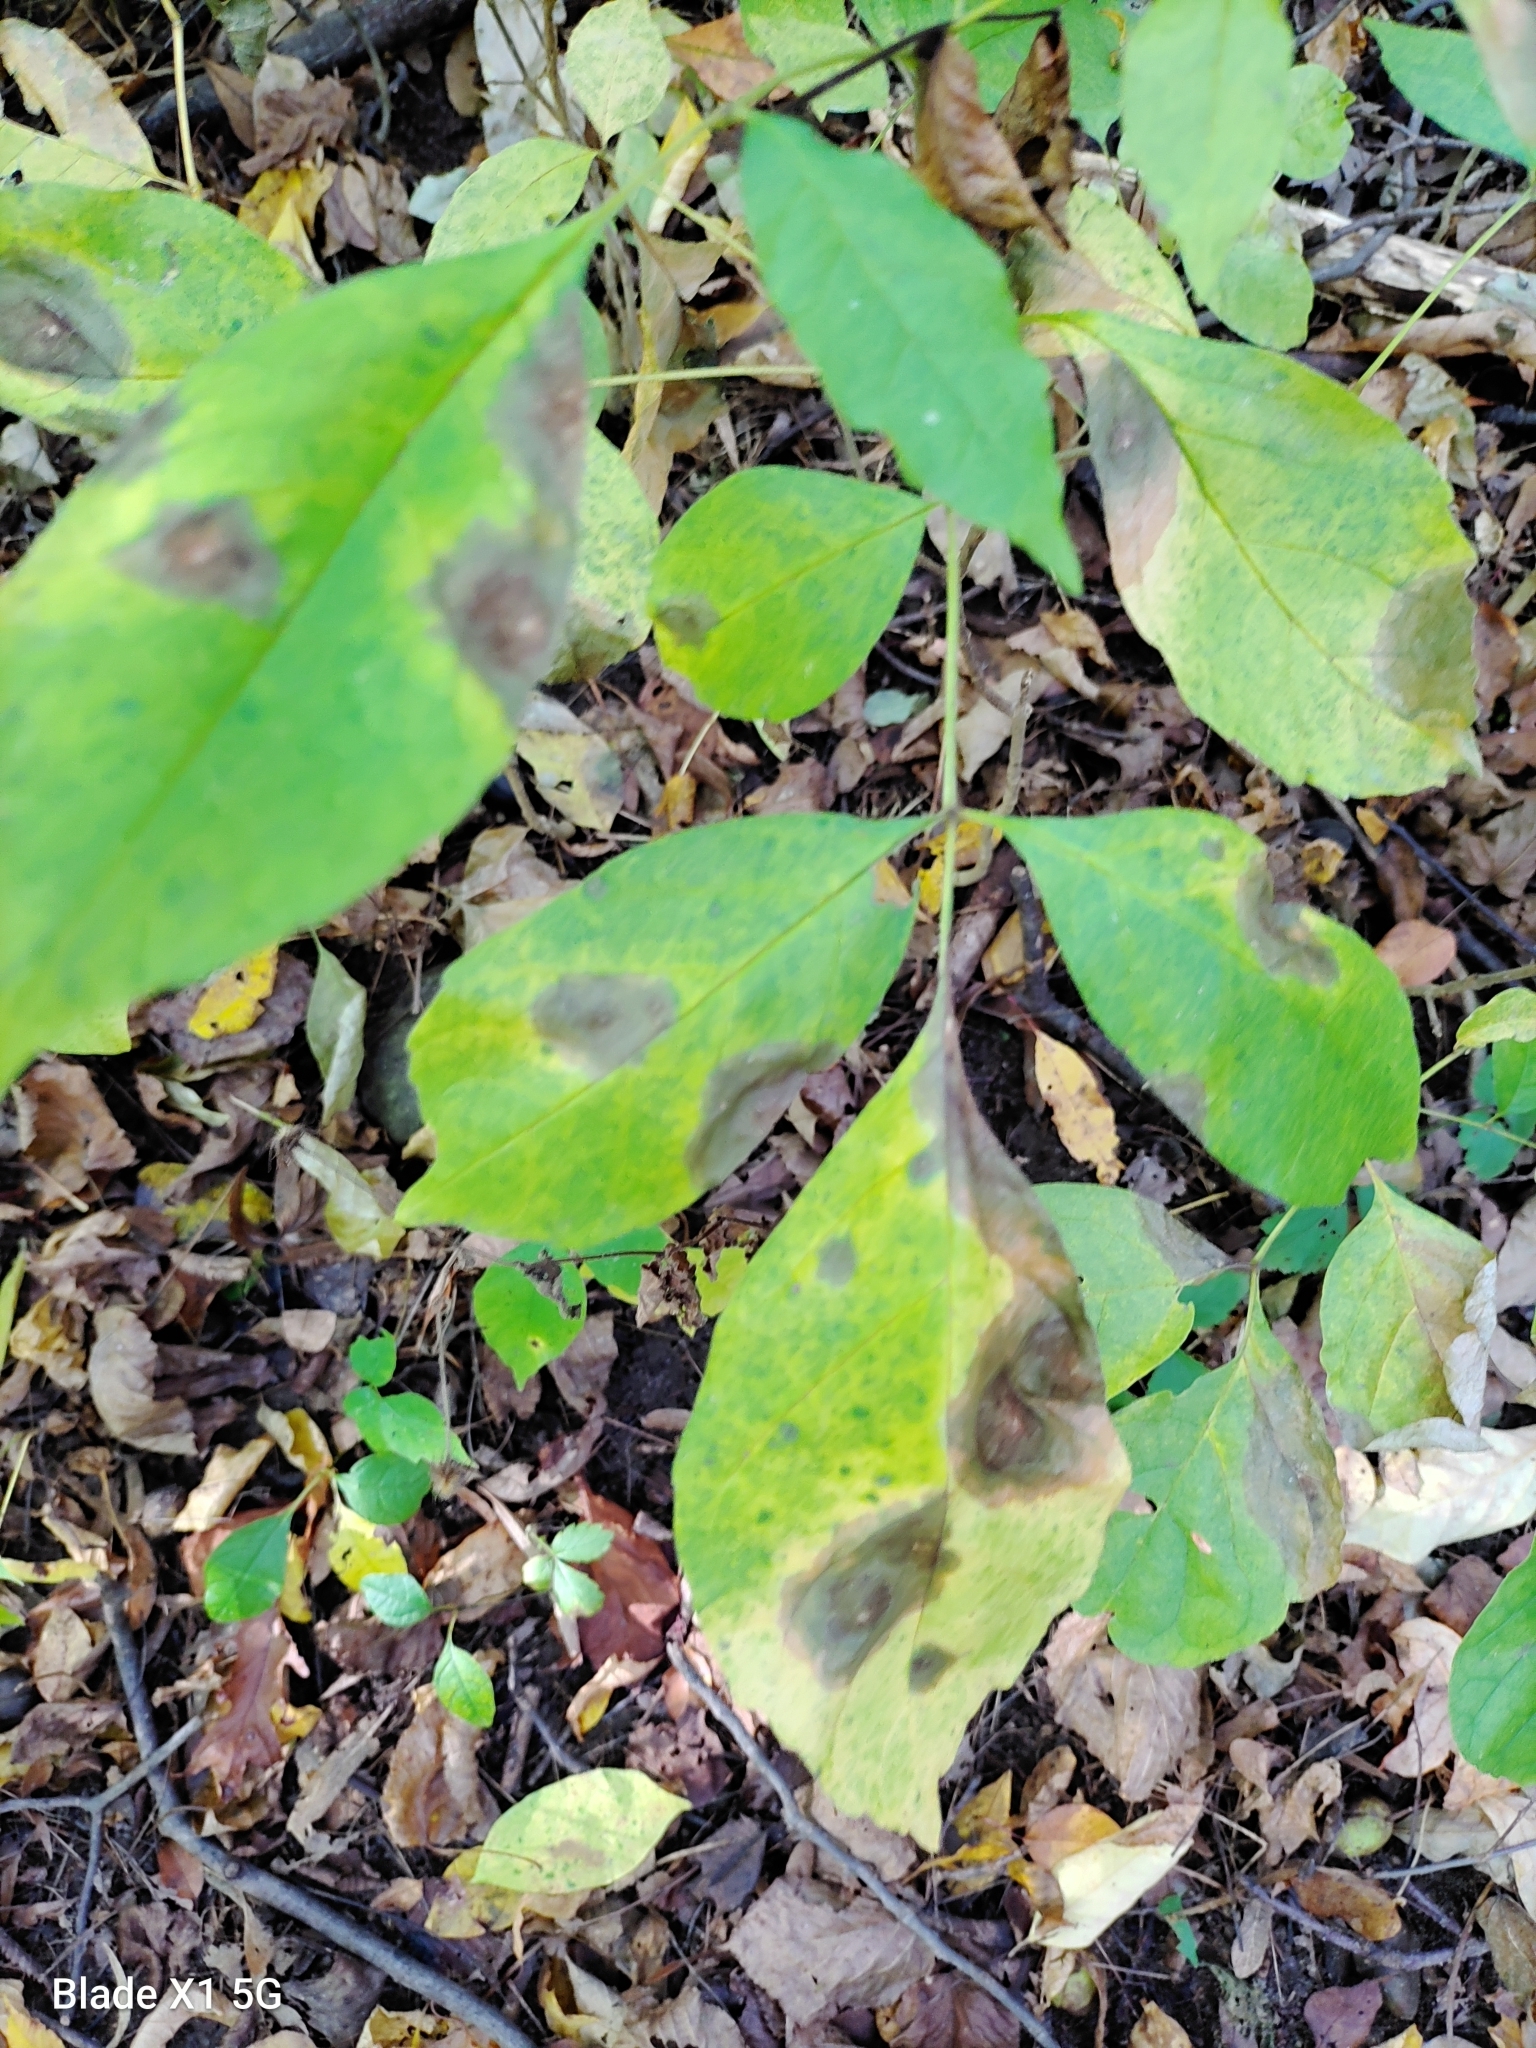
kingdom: Fungi
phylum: Ascomycota
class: Sordariomycetes
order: Diaporthales
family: Gnomoniaceae
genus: Gnomonia
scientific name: Gnomonia caryae
